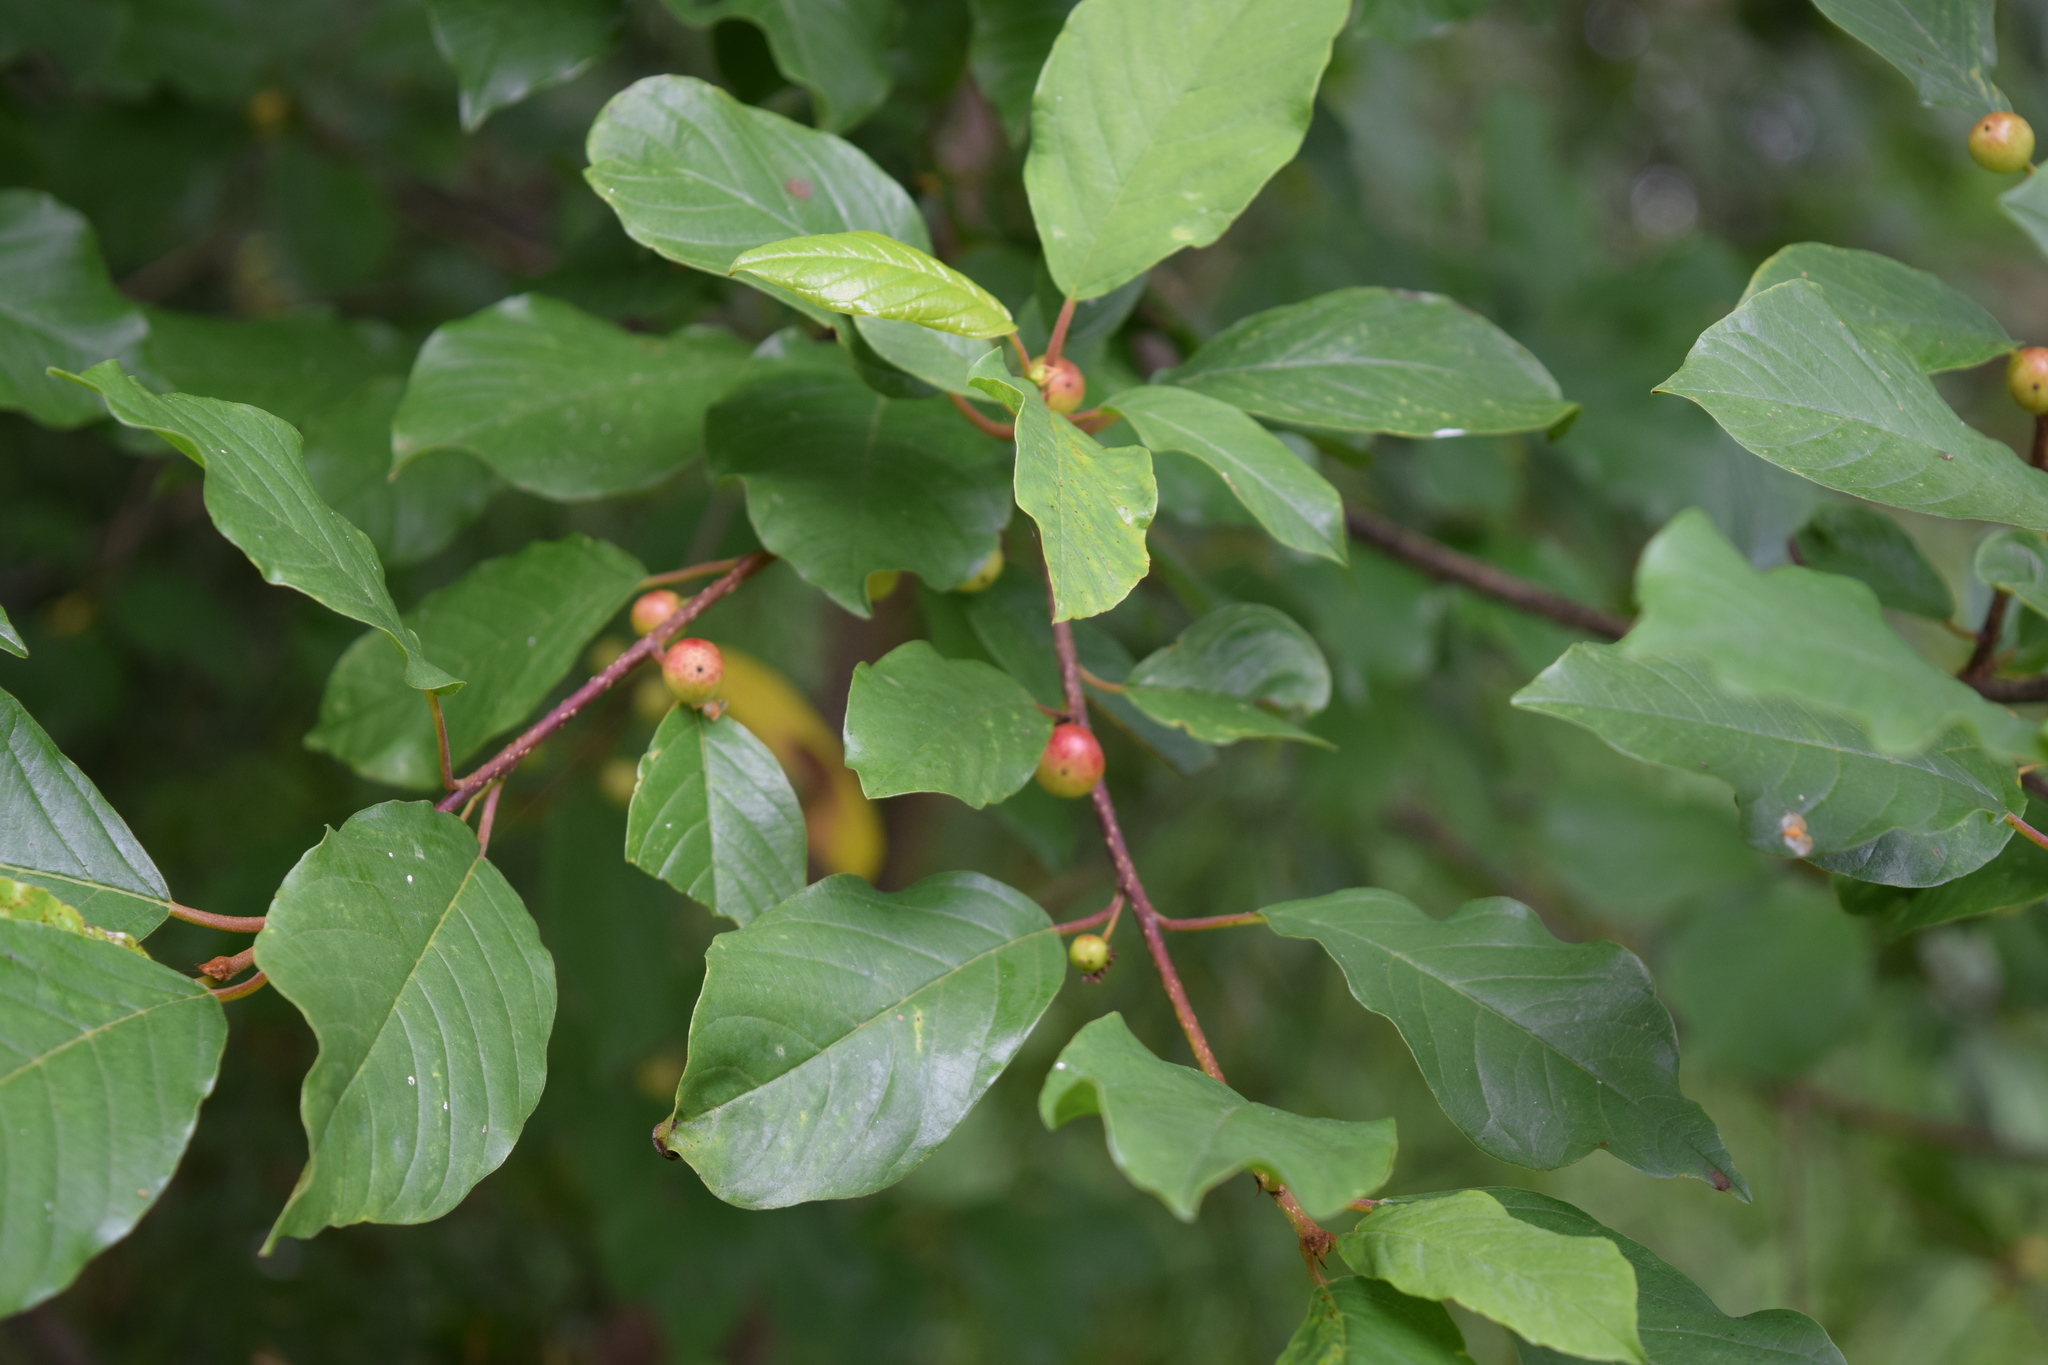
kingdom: Plantae
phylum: Tracheophyta
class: Magnoliopsida
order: Rosales
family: Rhamnaceae
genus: Frangula
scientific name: Frangula alnus
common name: Alder buckthorn
